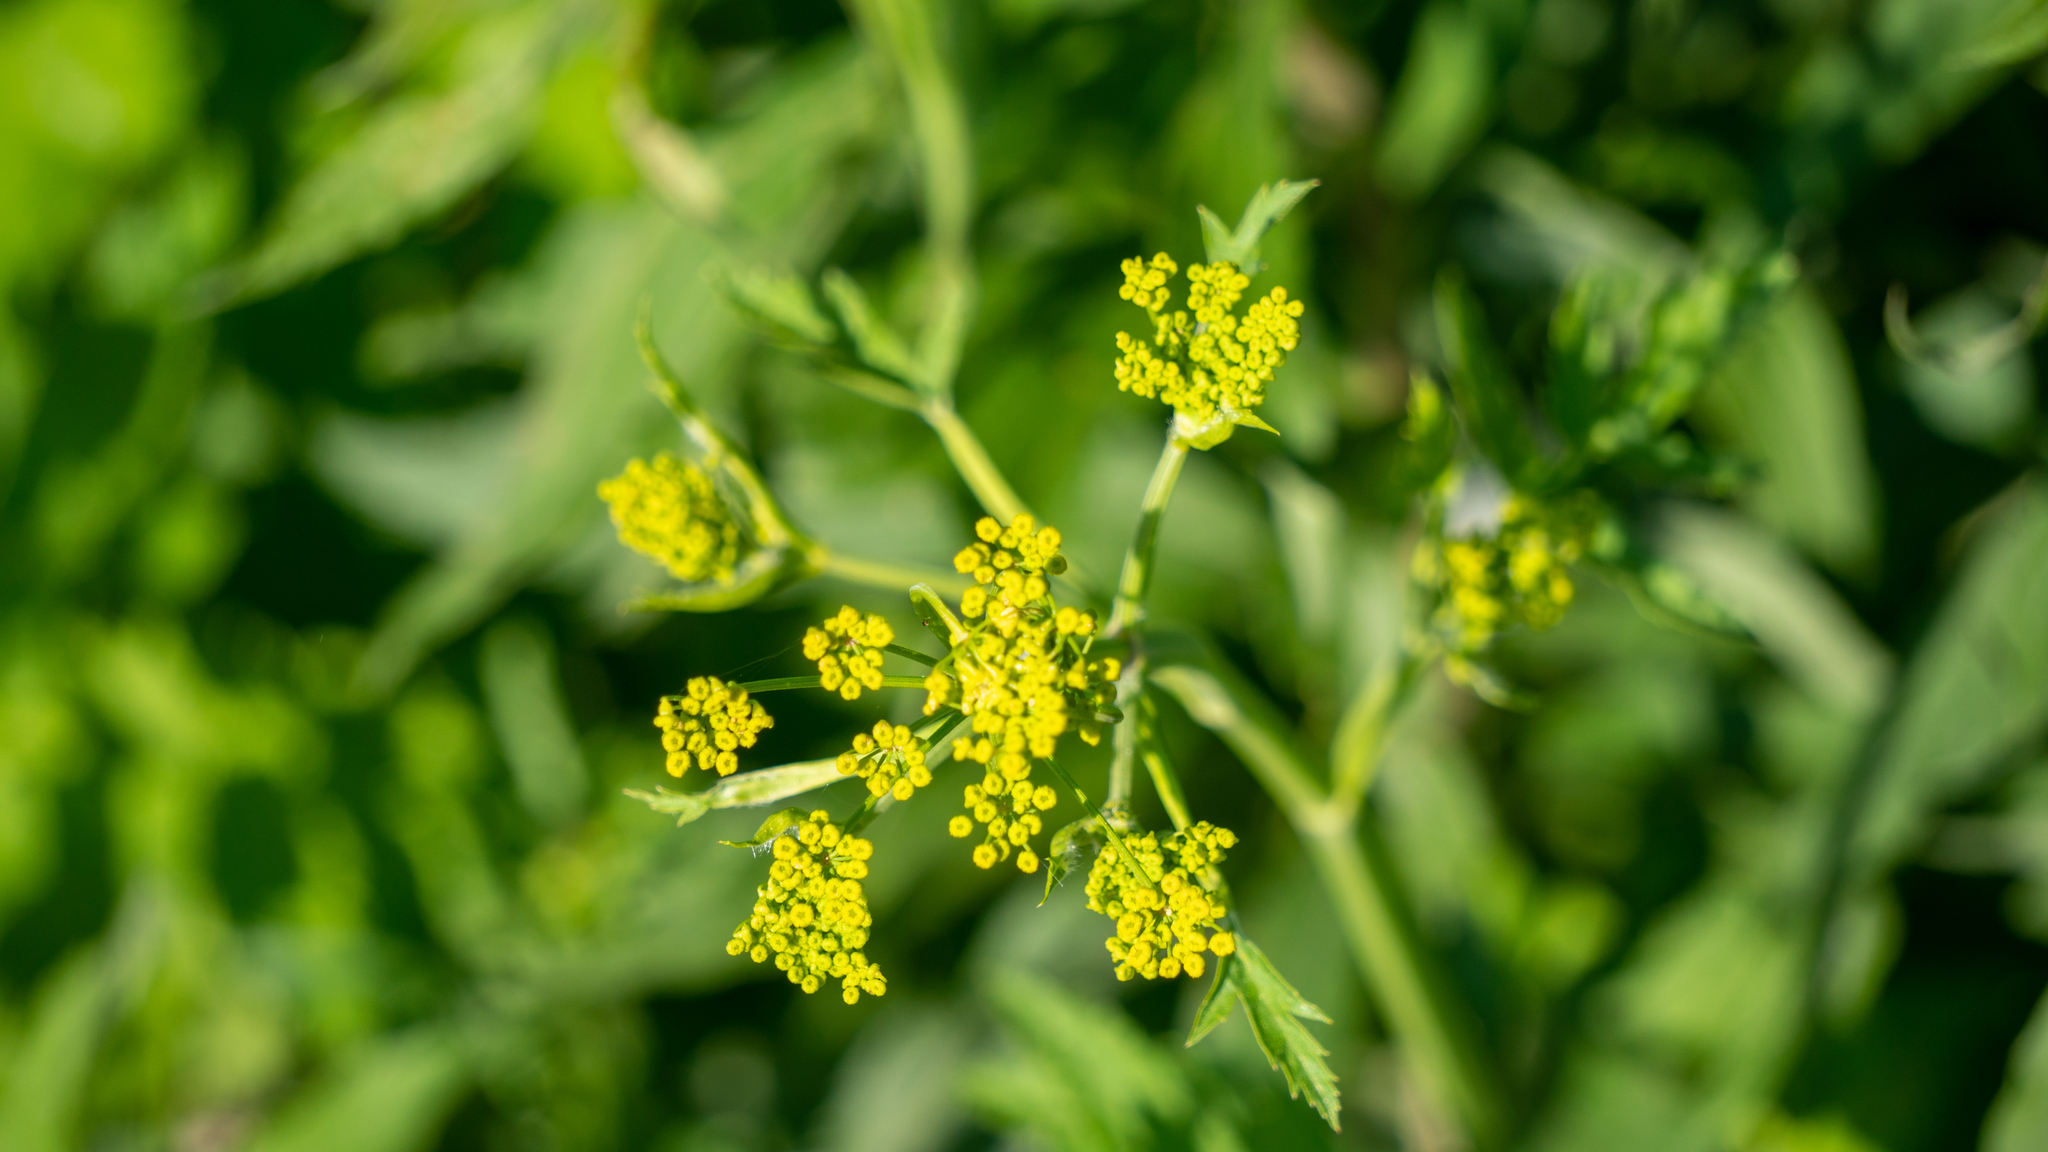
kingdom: Plantae
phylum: Tracheophyta
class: Magnoliopsida
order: Apiales
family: Apiaceae
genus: Pastinaca
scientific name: Pastinaca sativa
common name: Wild parsnip
